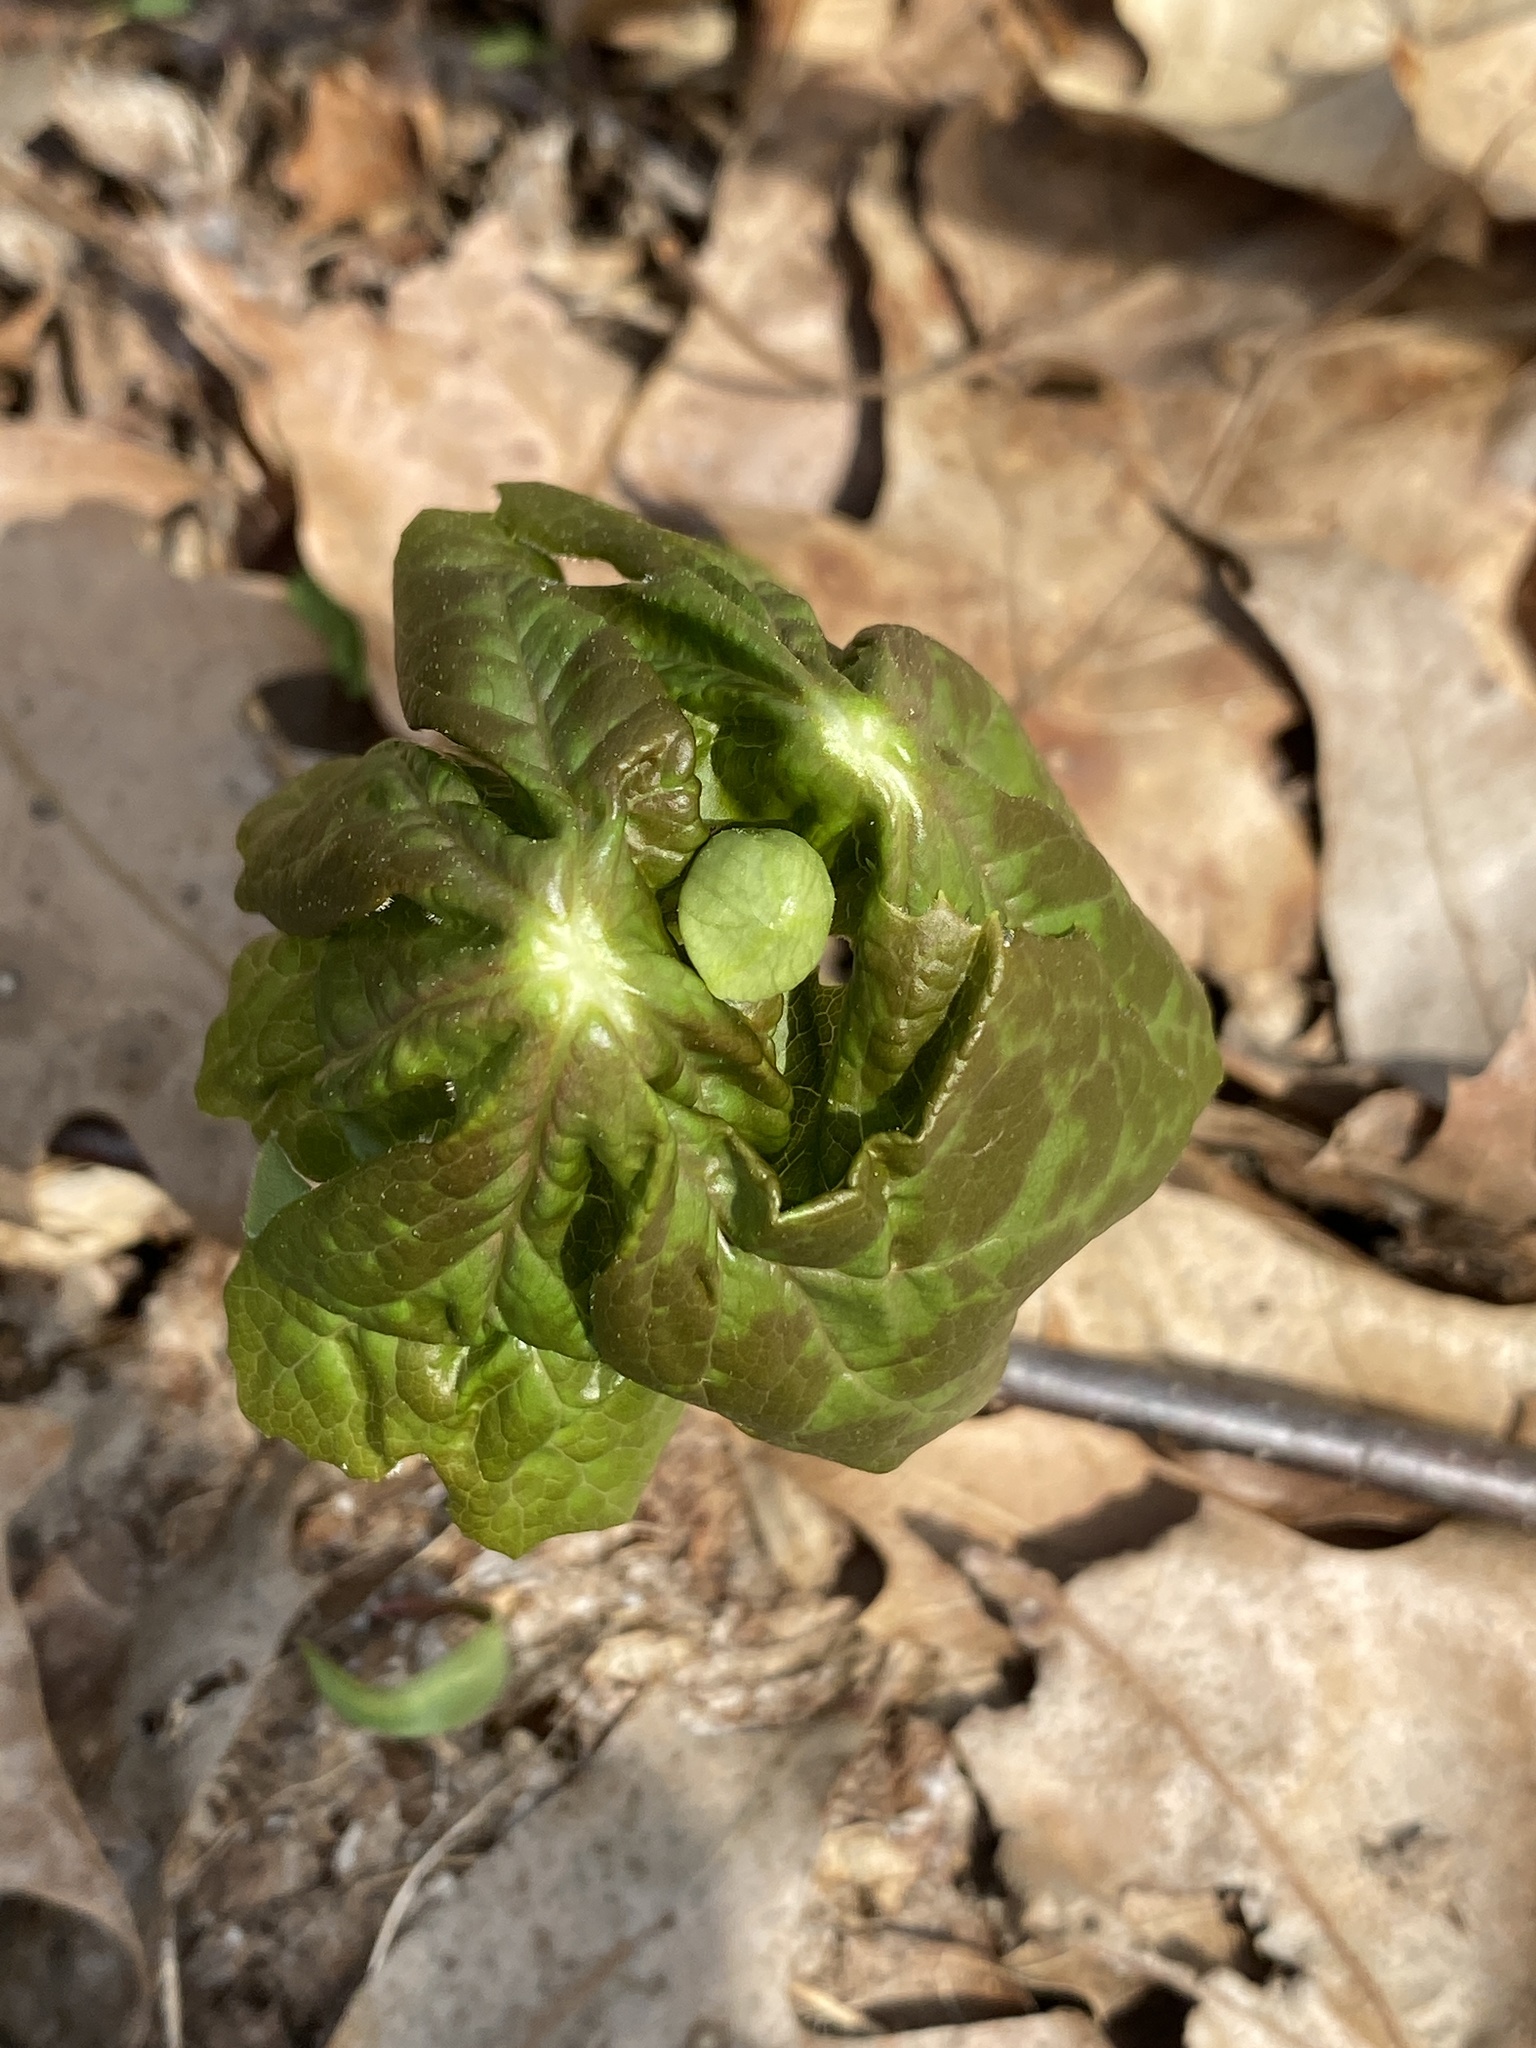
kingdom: Plantae
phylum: Tracheophyta
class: Magnoliopsida
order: Ranunculales
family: Berberidaceae
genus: Podophyllum
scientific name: Podophyllum peltatum
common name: Wild mandrake
